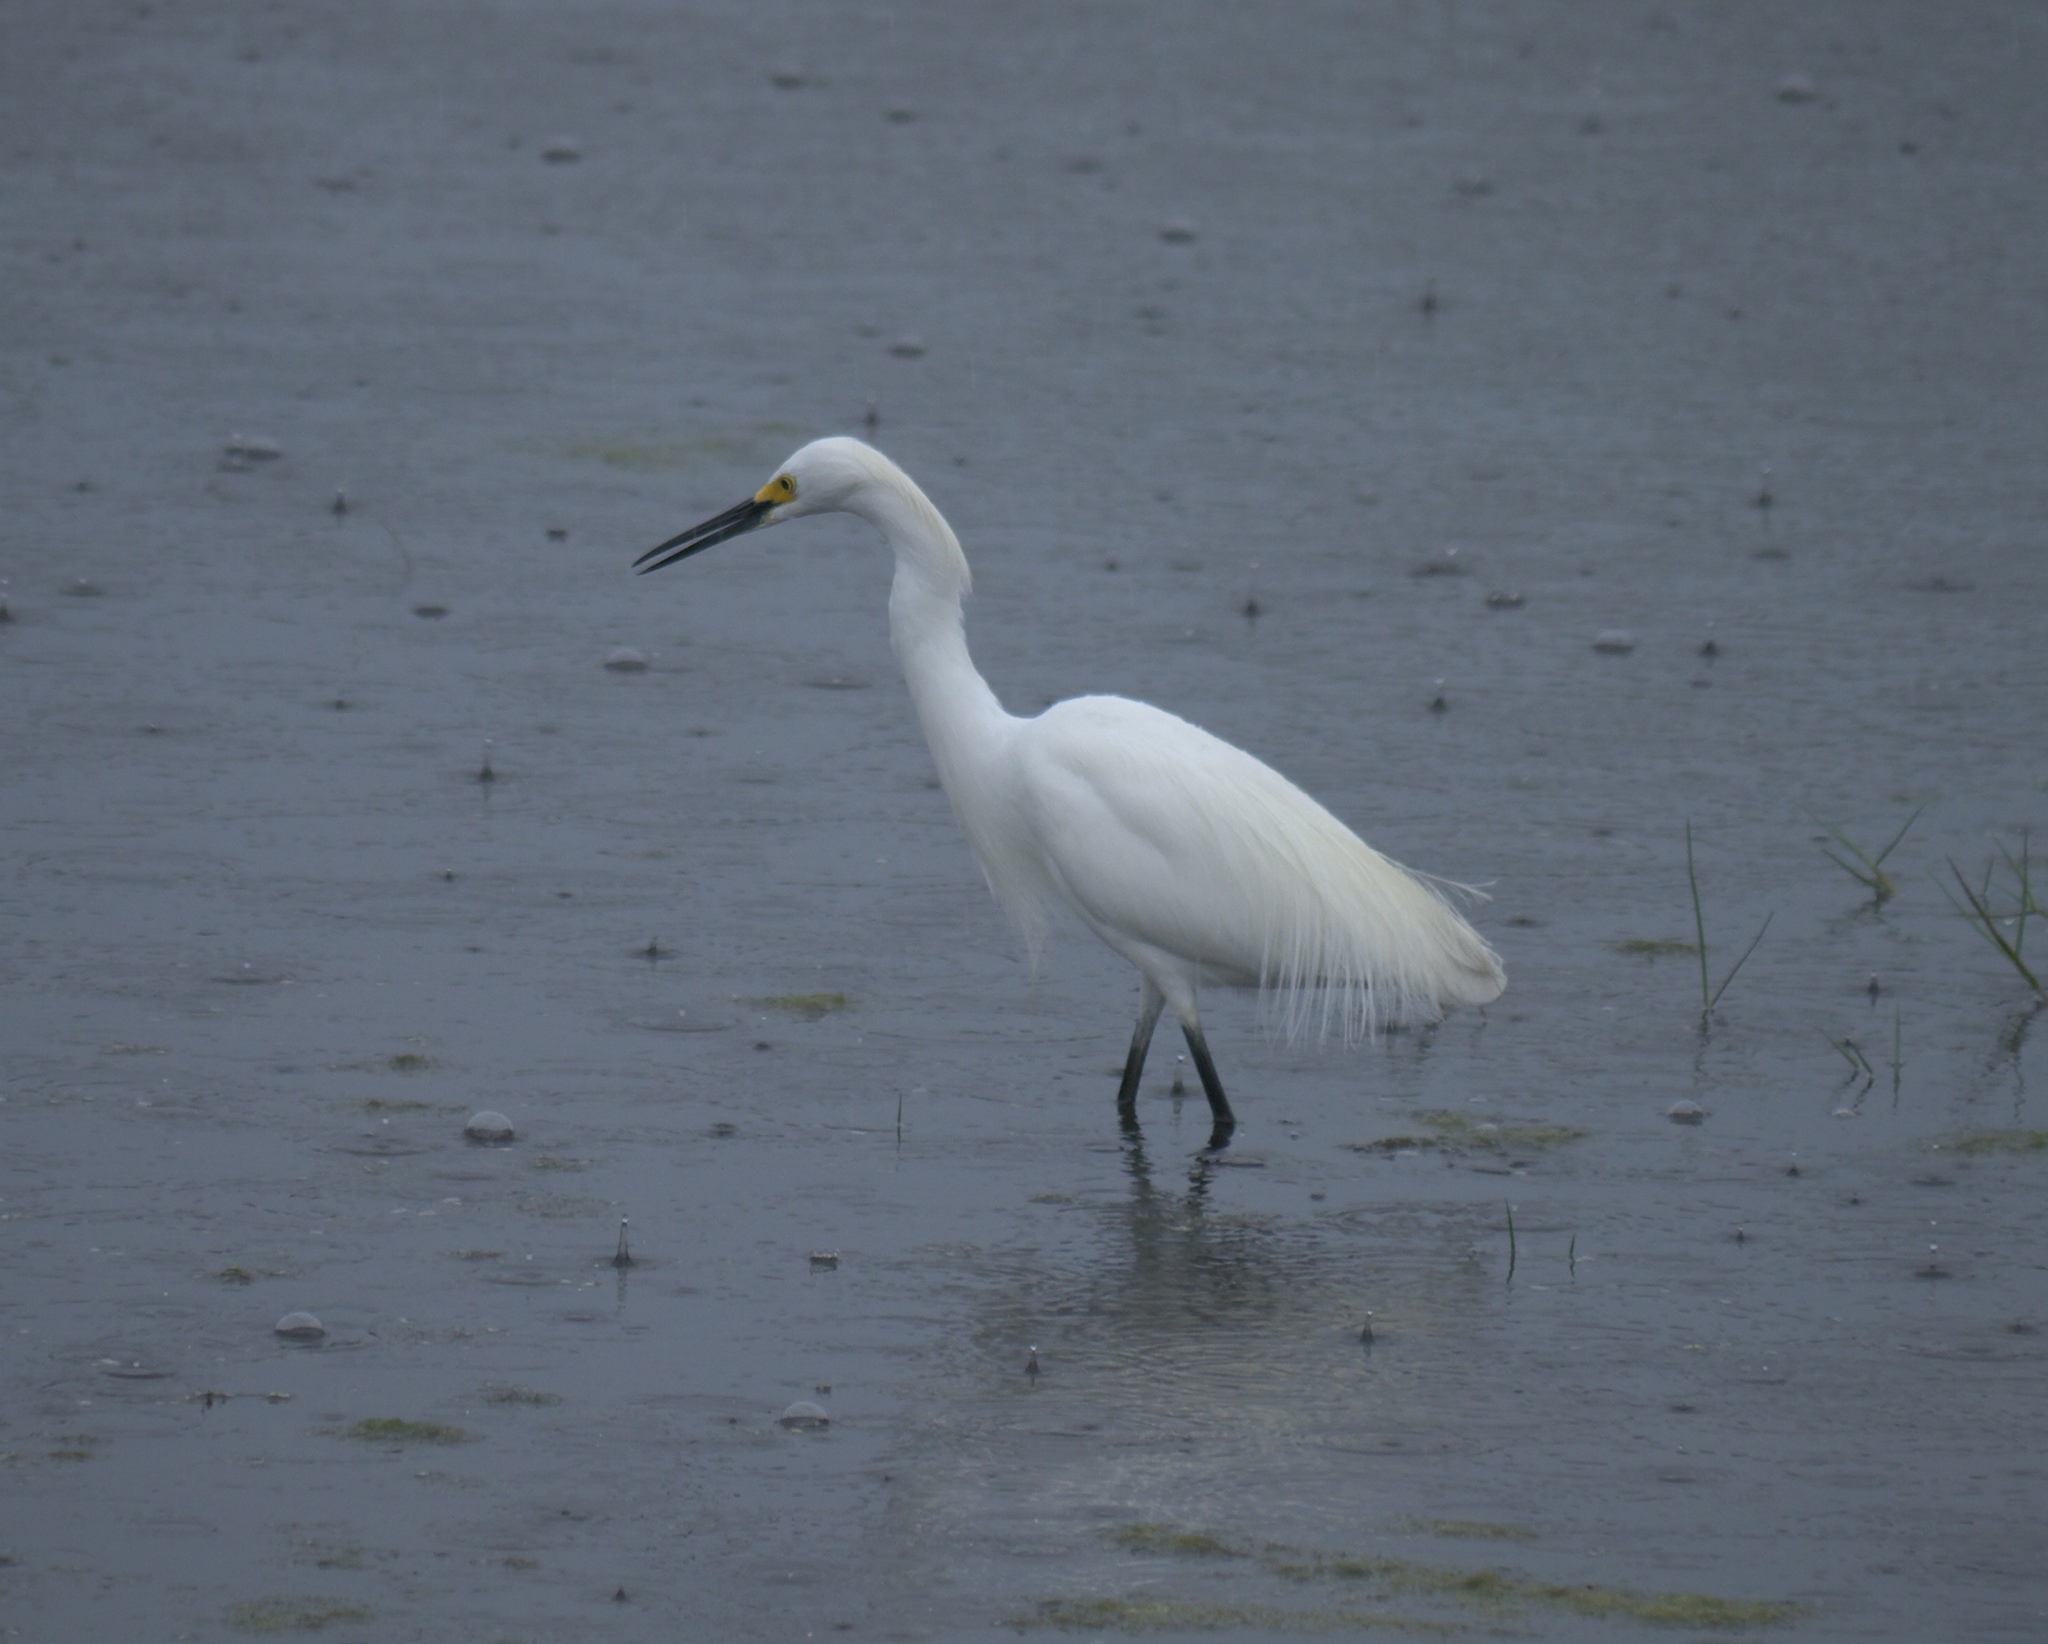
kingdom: Animalia
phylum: Chordata
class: Aves
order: Pelecaniformes
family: Ardeidae
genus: Egretta
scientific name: Egretta thula
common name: Snowy egret
